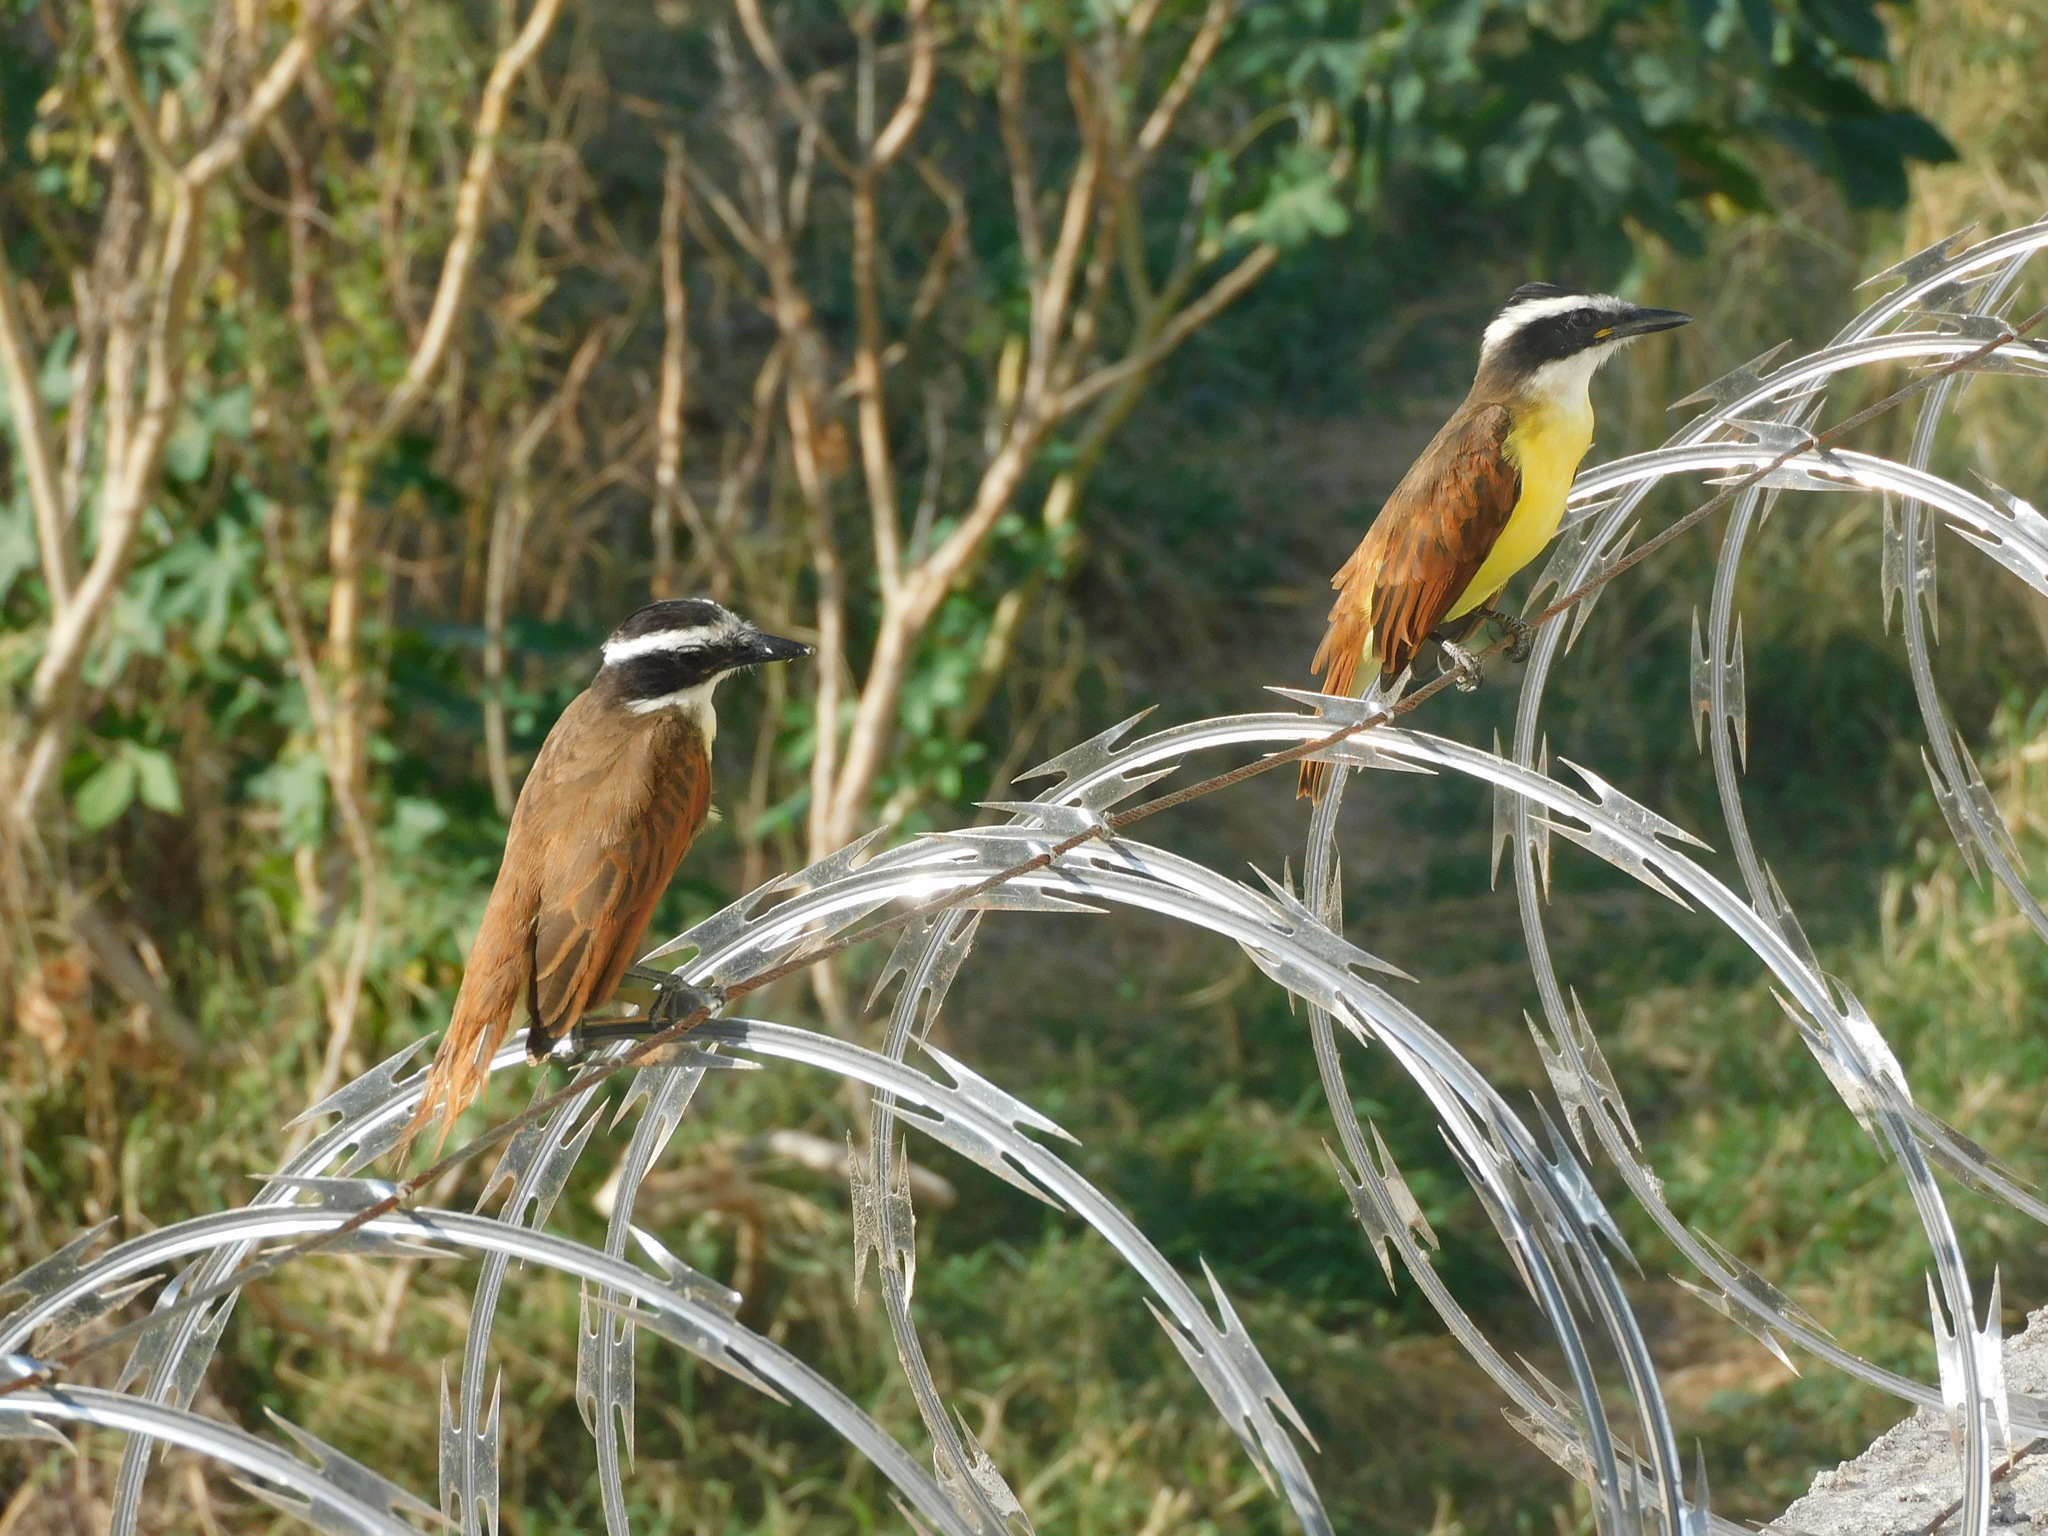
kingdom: Animalia
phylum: Chordata
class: Aves
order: Passeriformes
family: Tyrannidae
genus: Pitangus
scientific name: Pitangus sulphuratus
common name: Great kiskadee
